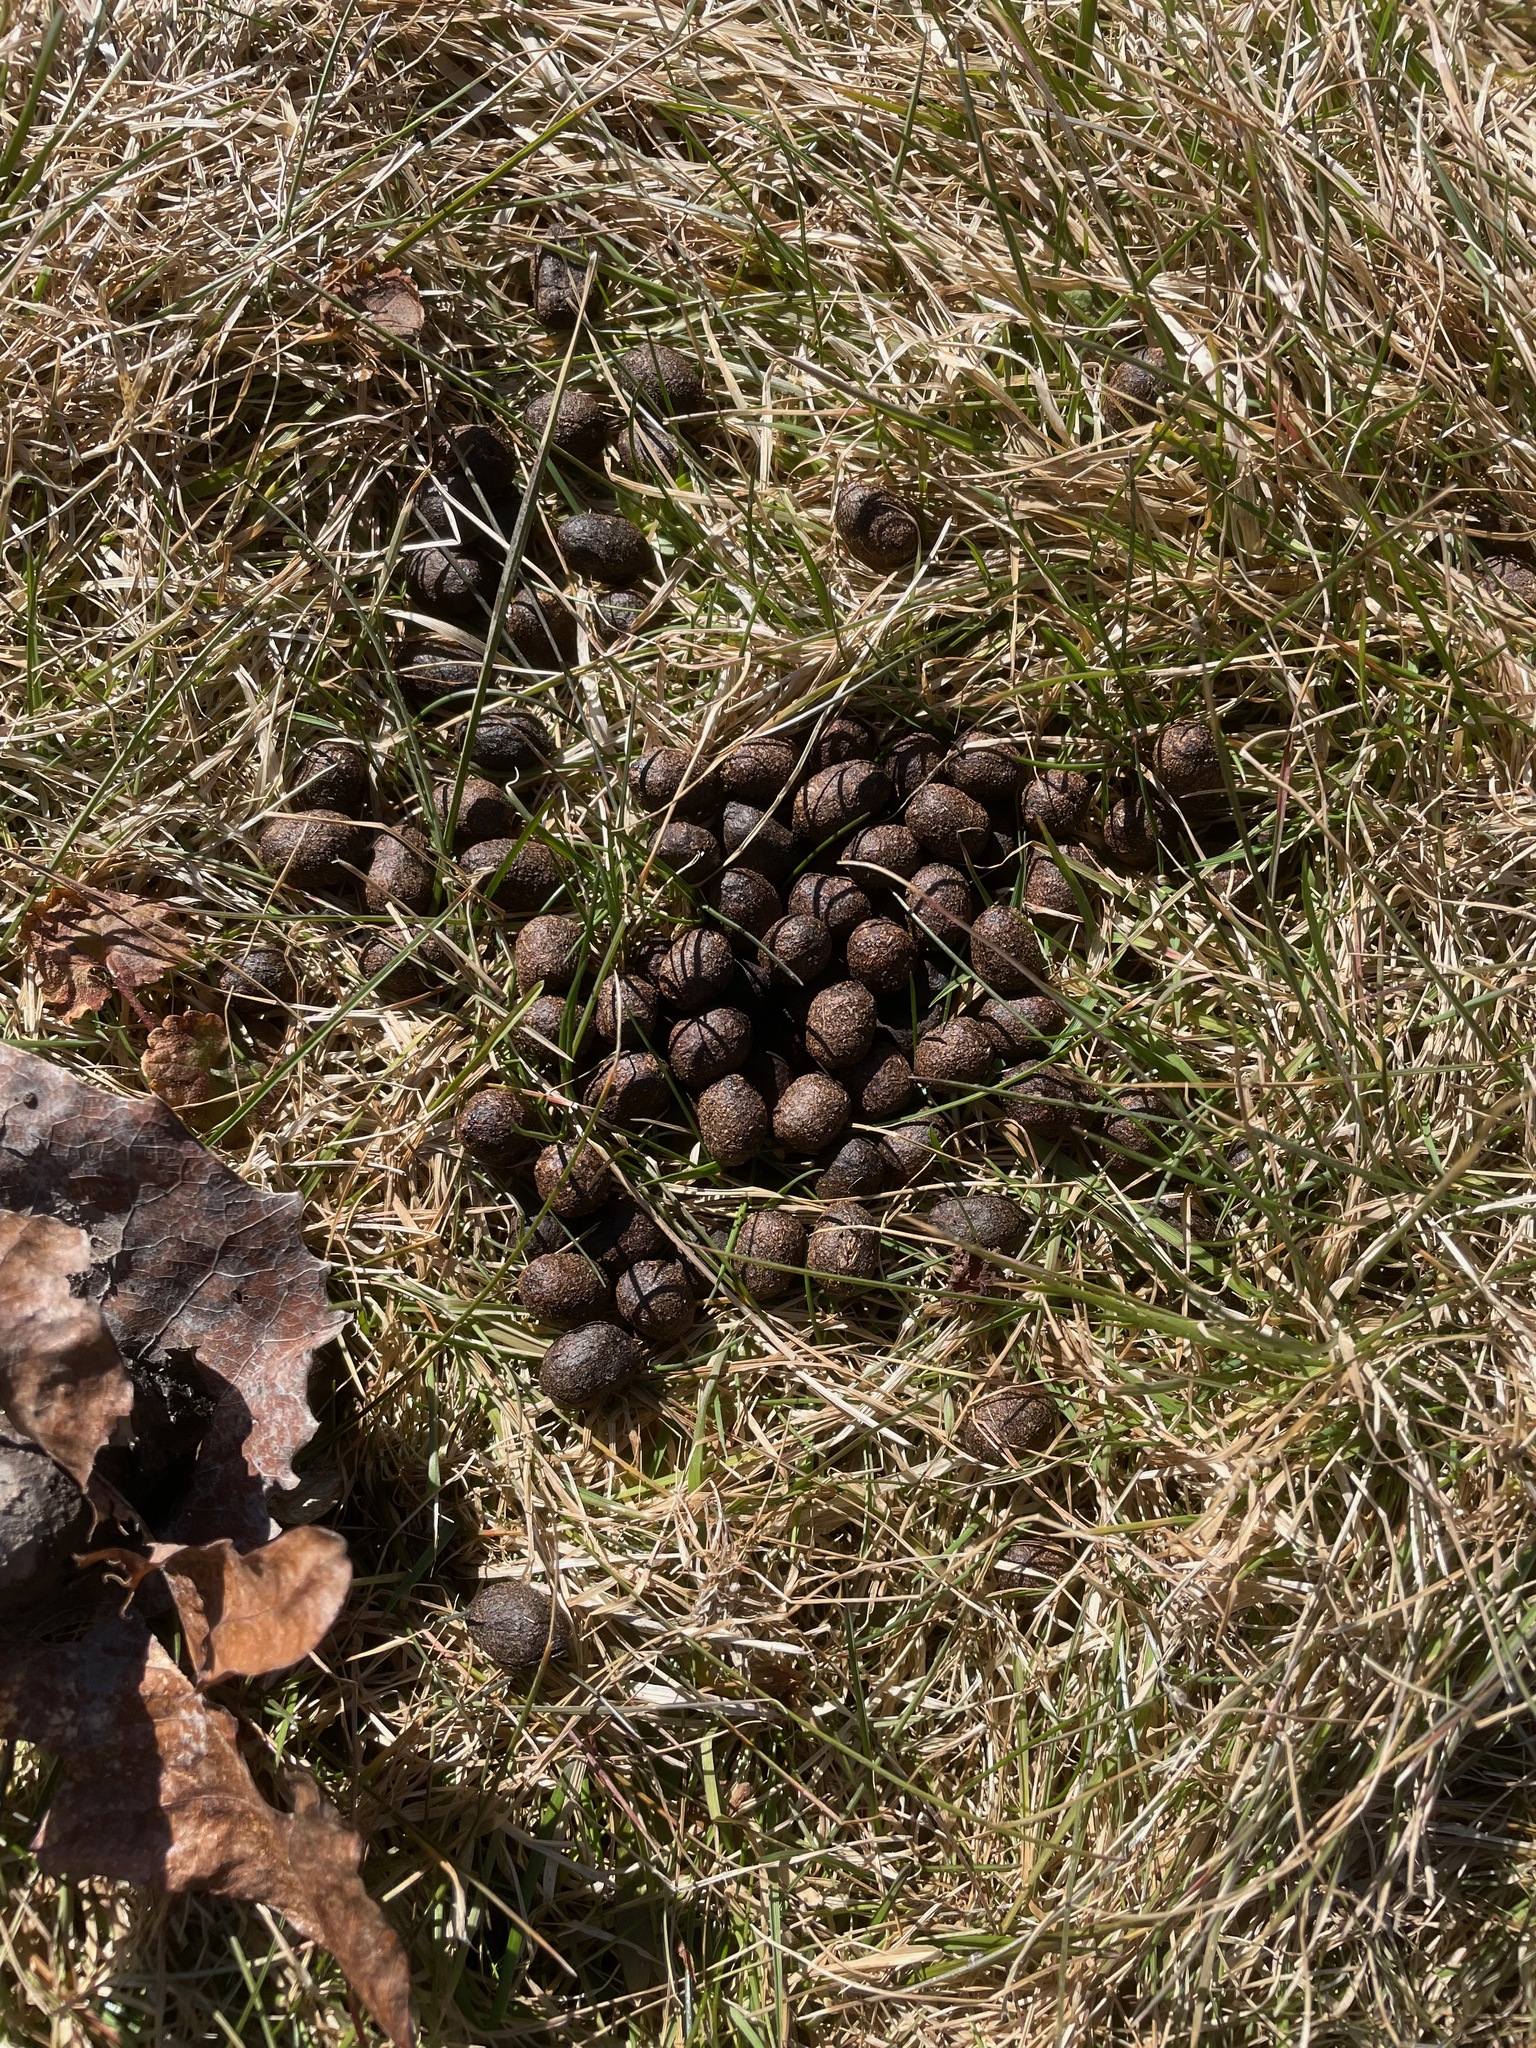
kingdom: Animalia
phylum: Chordata
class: Mammalia
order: Artiodactyla
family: Cervidae
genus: Odocoileus
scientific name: Odocoileus virginianus
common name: White-tailed deer
